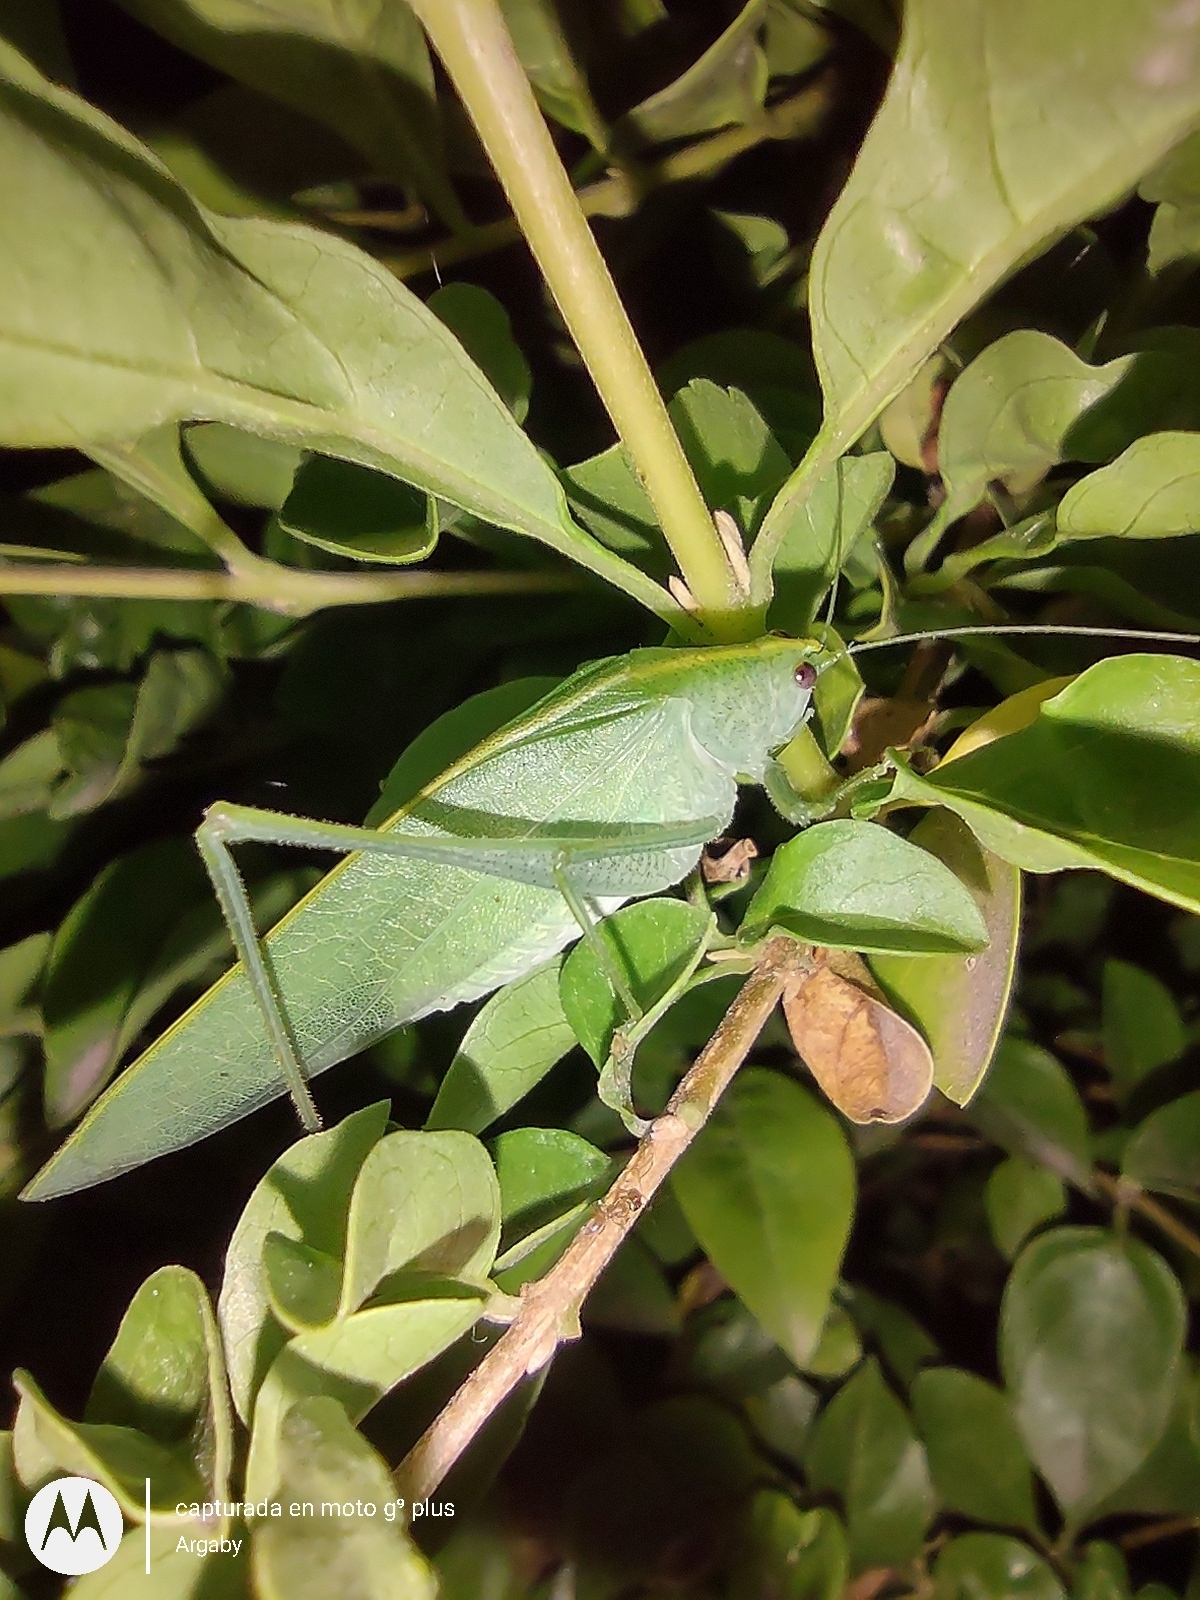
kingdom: Animalia
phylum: Arthropoda
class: Insecta
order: Orthoptera
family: Tettigoniidae
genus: Grammadera
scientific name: Grammadera clara
